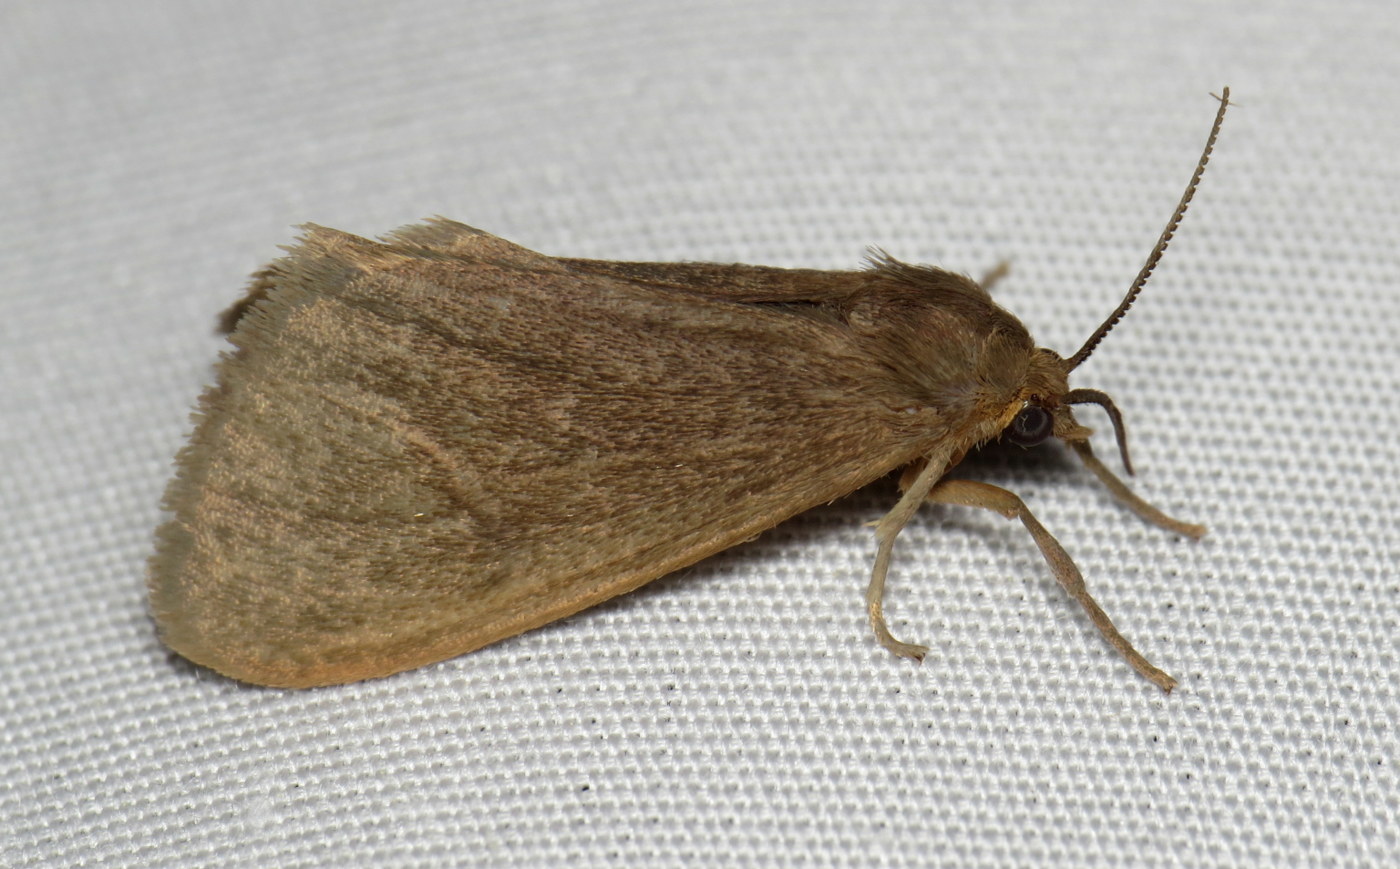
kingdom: Animalia
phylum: Arthropoda
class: Insecta
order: Lepidoptera
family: Erebidae
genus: Virbia
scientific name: Virbia opella
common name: Tawny virbia moth
